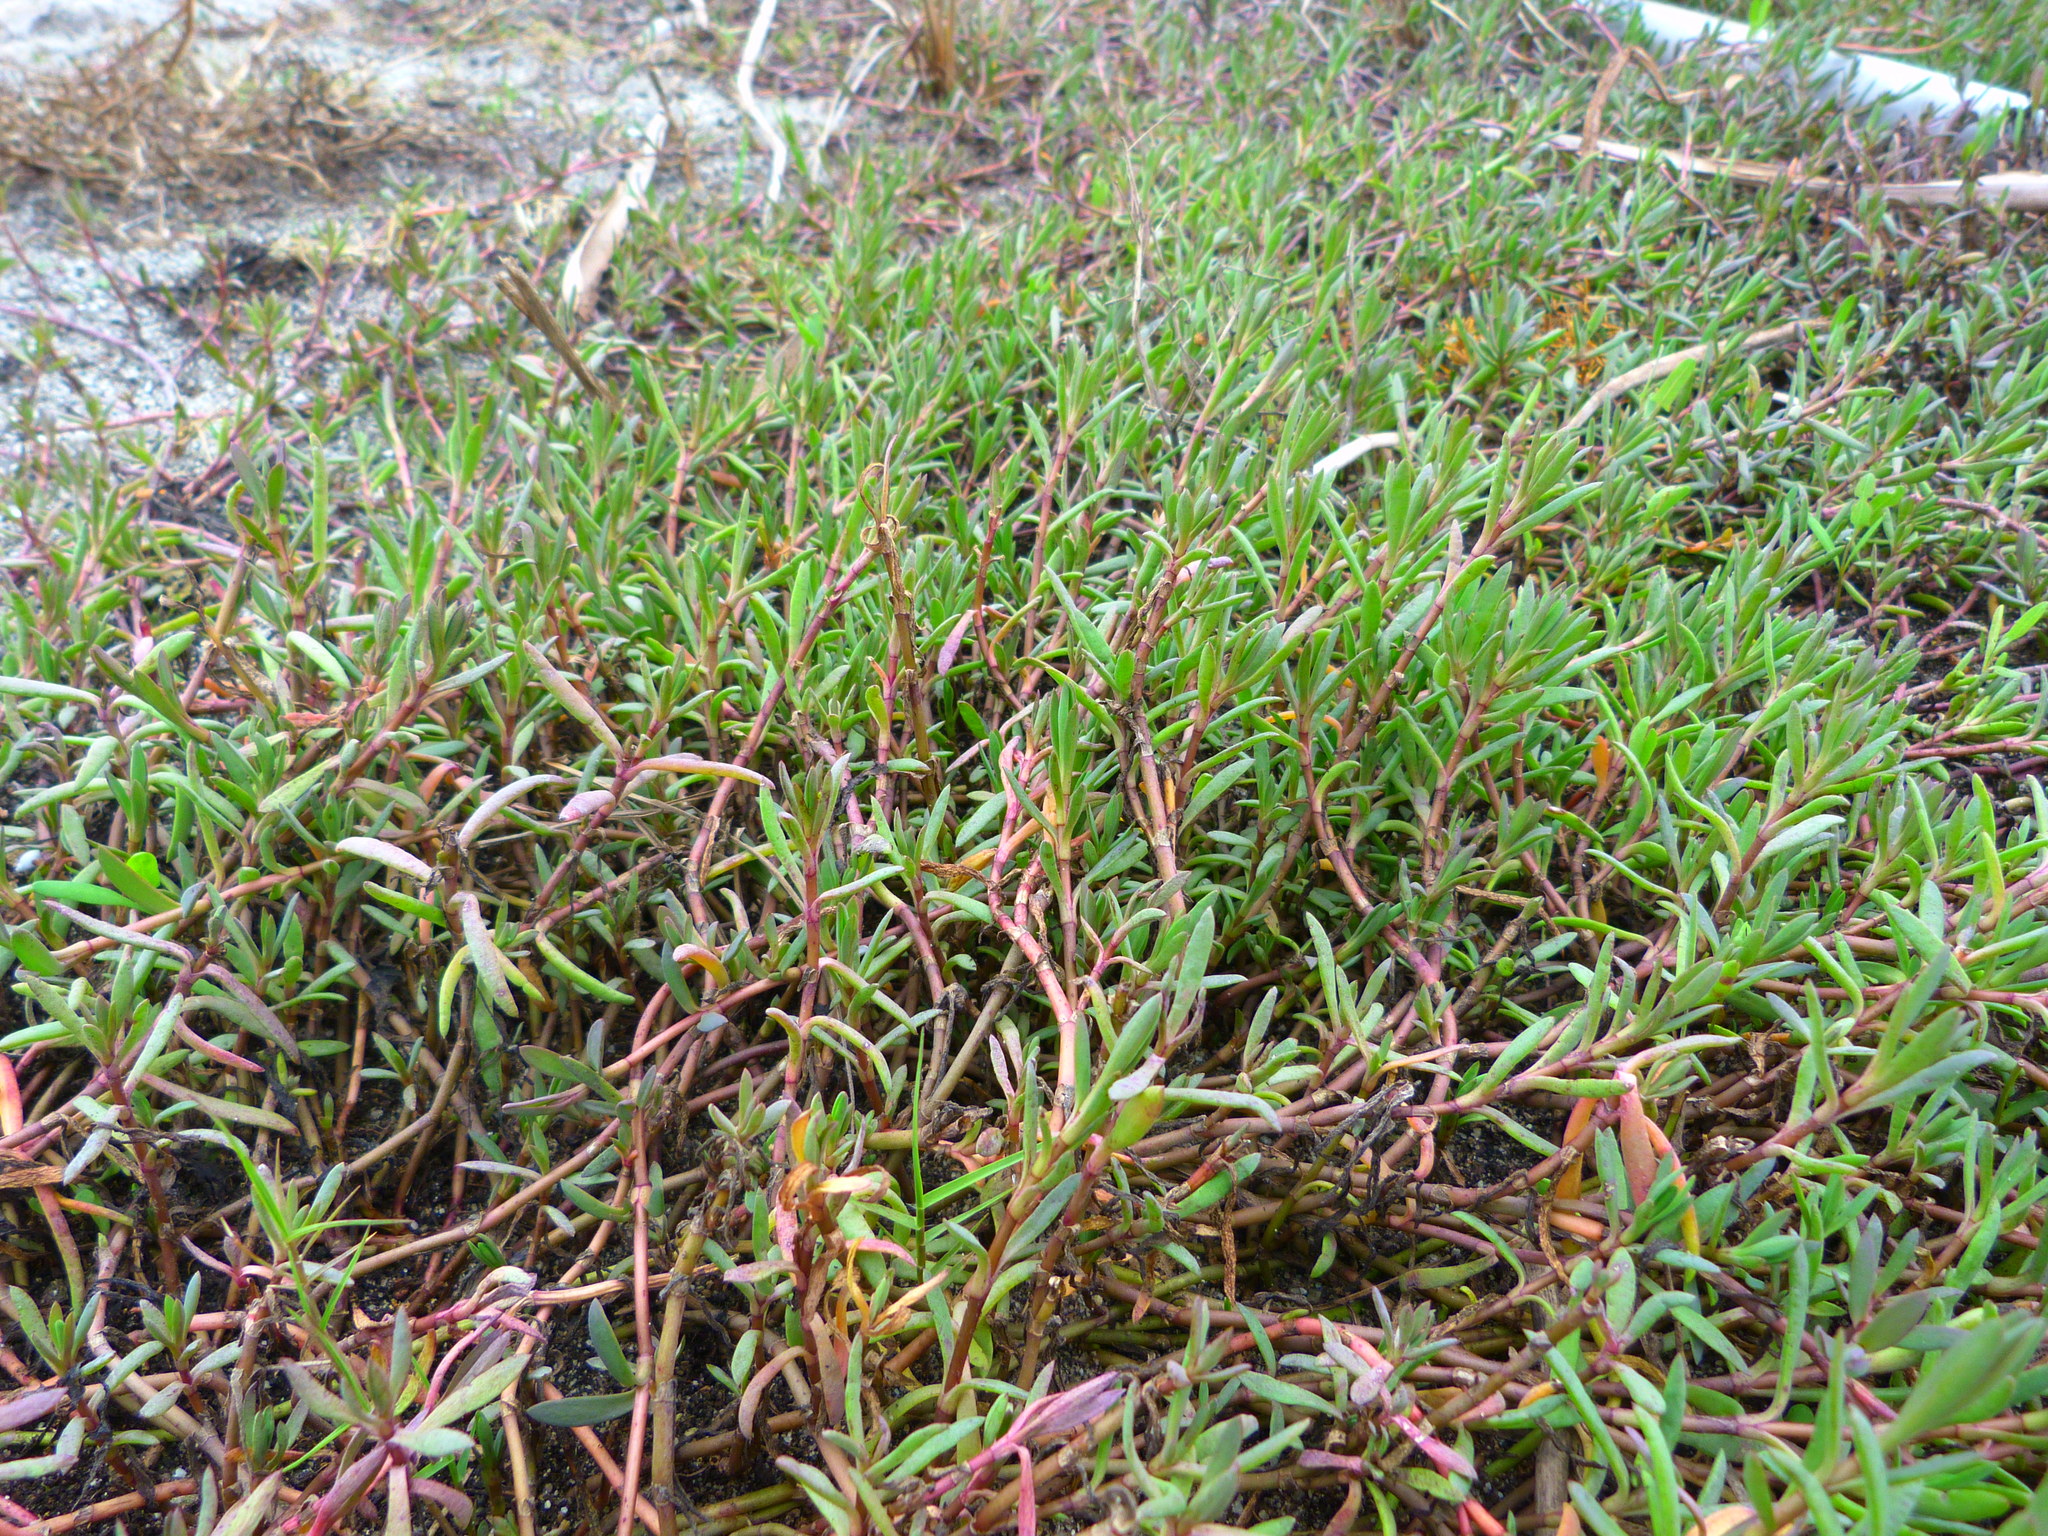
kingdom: Plantae
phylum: Tracheophyta
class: Magnoliopsida
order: Asterales
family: Asteraceae
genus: Jaumea
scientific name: Jaumea carnosa
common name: Fleshy jaumea
